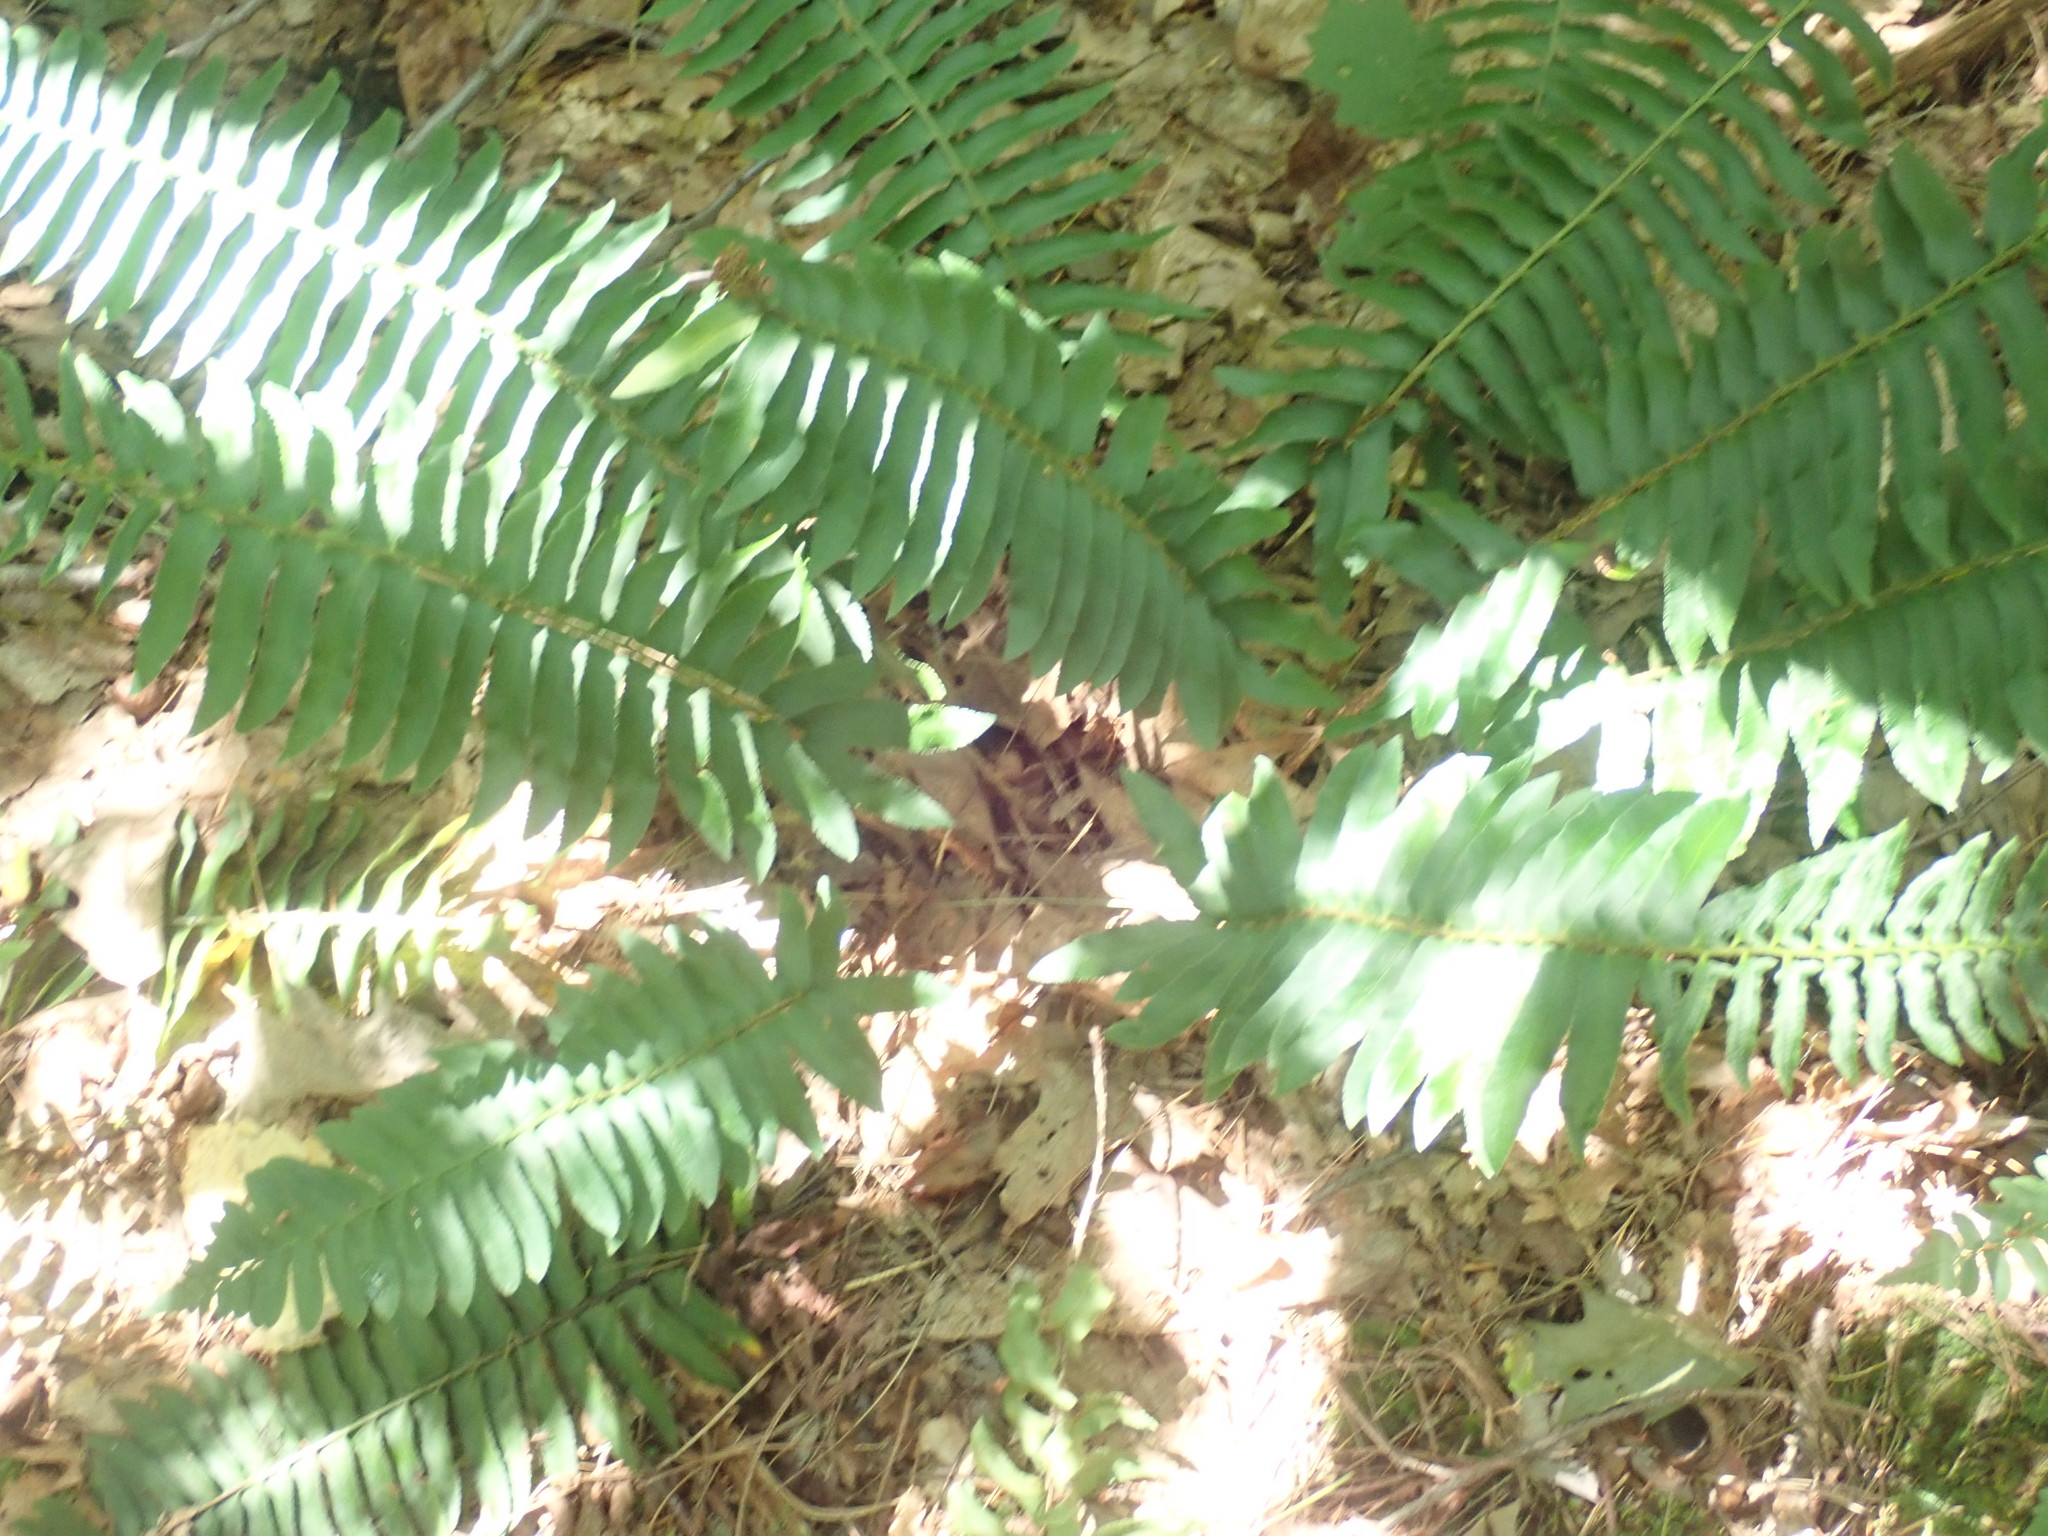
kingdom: Plantae
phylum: Tracheophyta
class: Polypodiopsida
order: Polypodiales
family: Dryopteridaceae
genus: Polystichum
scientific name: Polystichum acrostichoides
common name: Christmas fern
